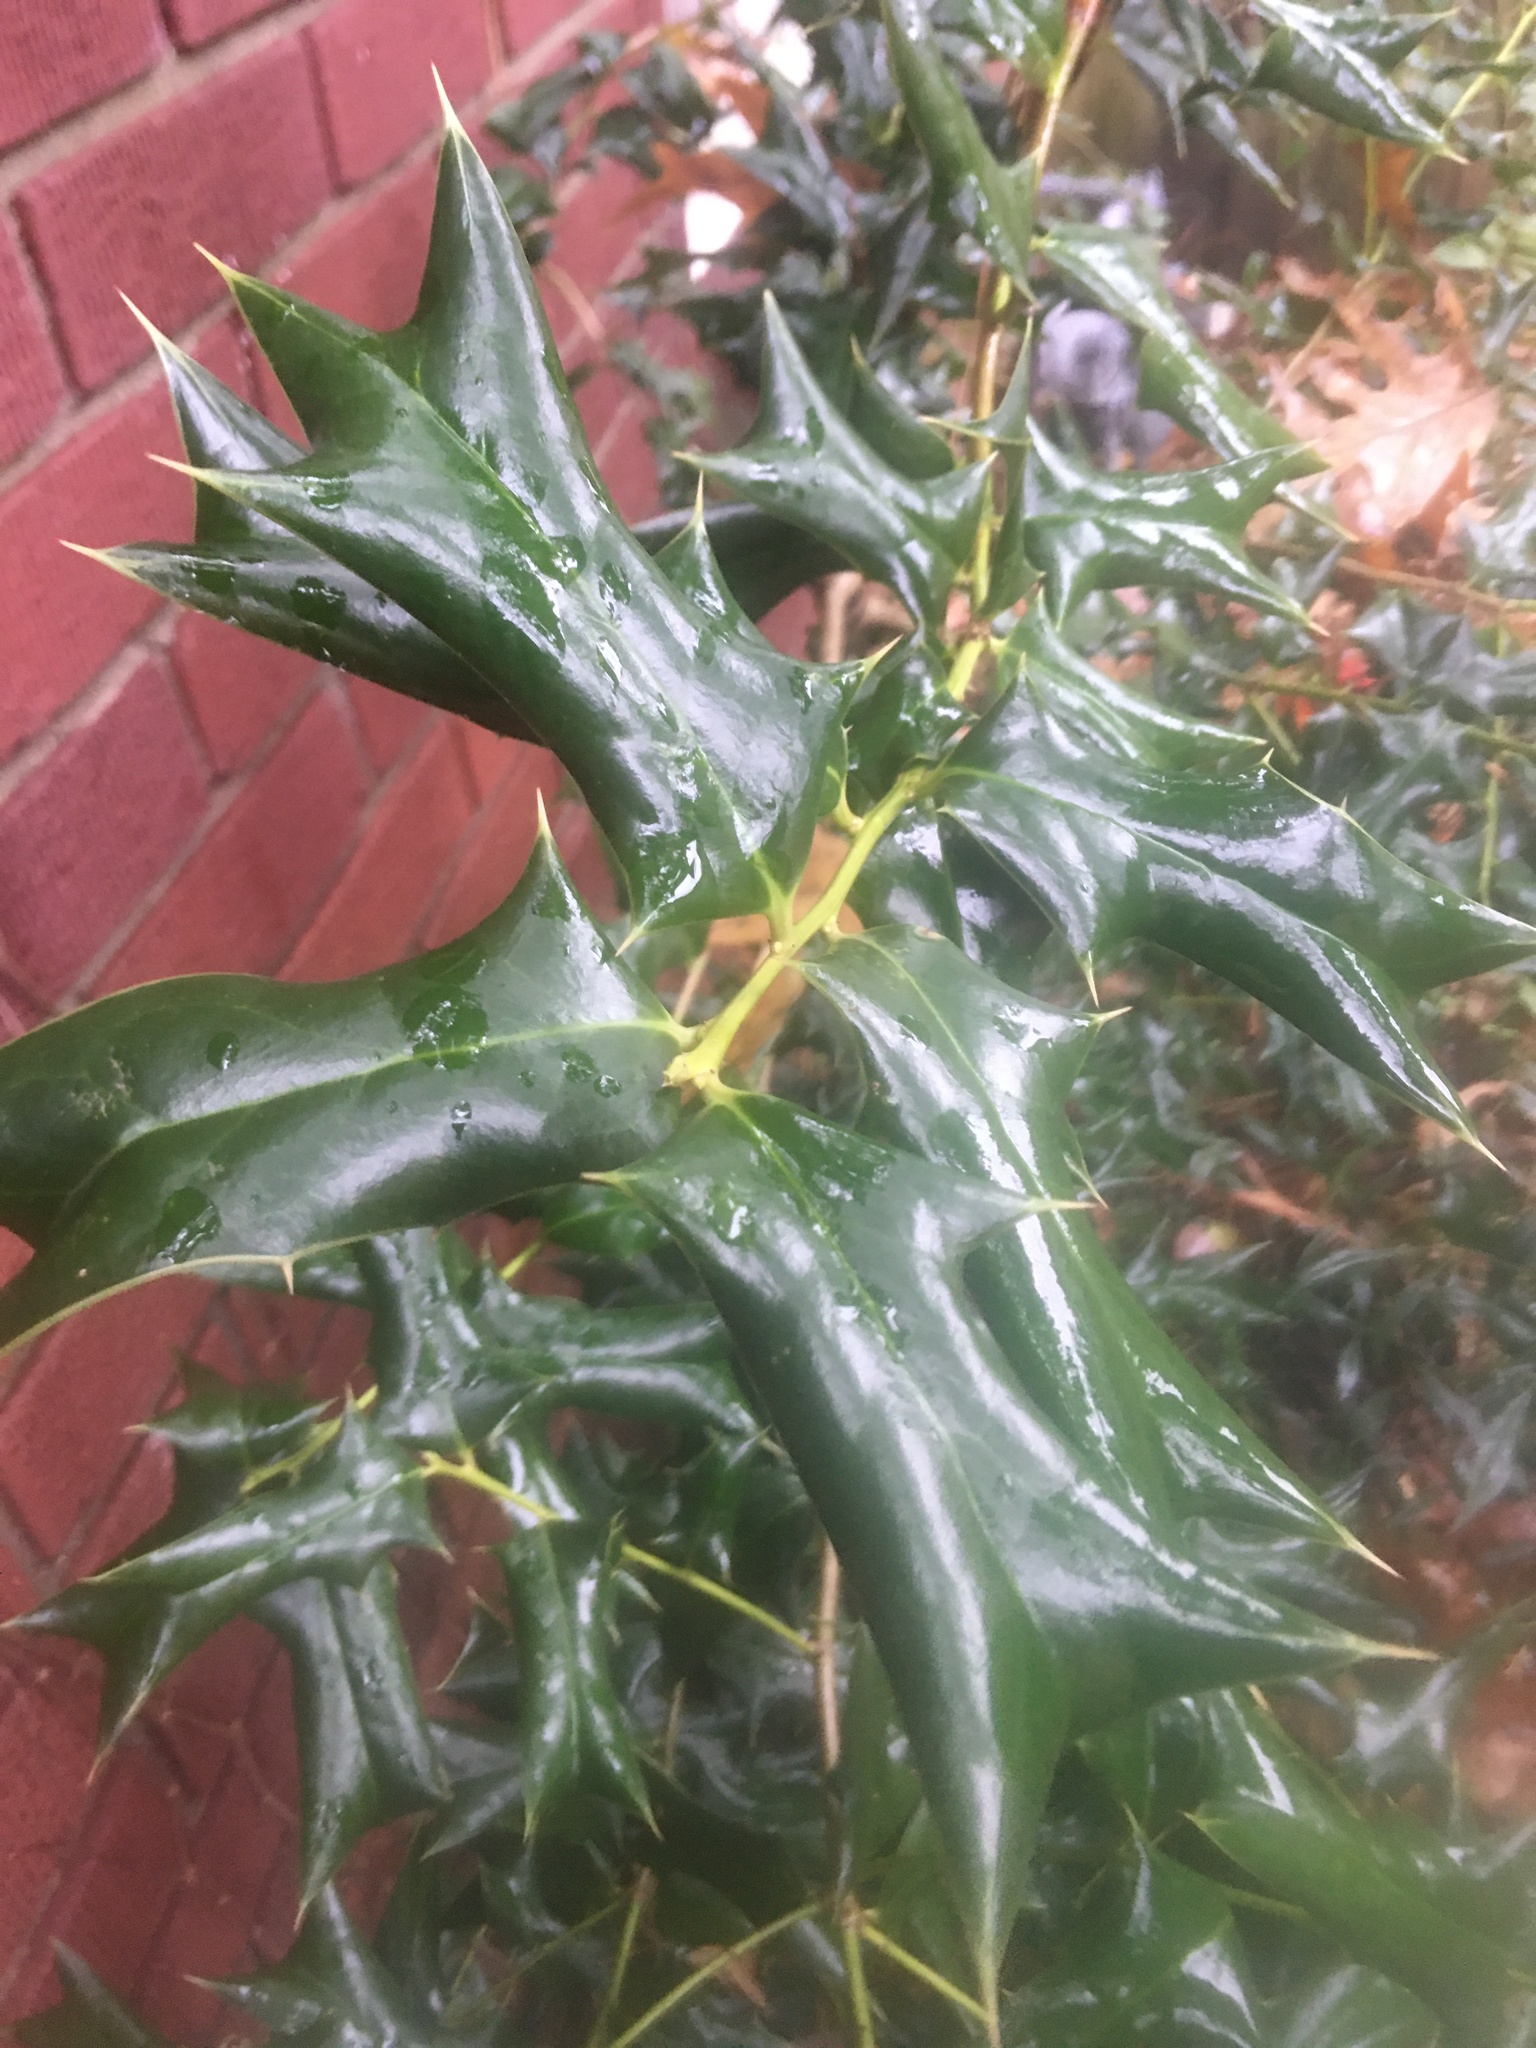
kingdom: Plantae
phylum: Tracheophyta
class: Magnoliopsida
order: Aquifoliales
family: Aquifoliaceae
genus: Ilex
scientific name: Ilex cornuta
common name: Chinese holly
